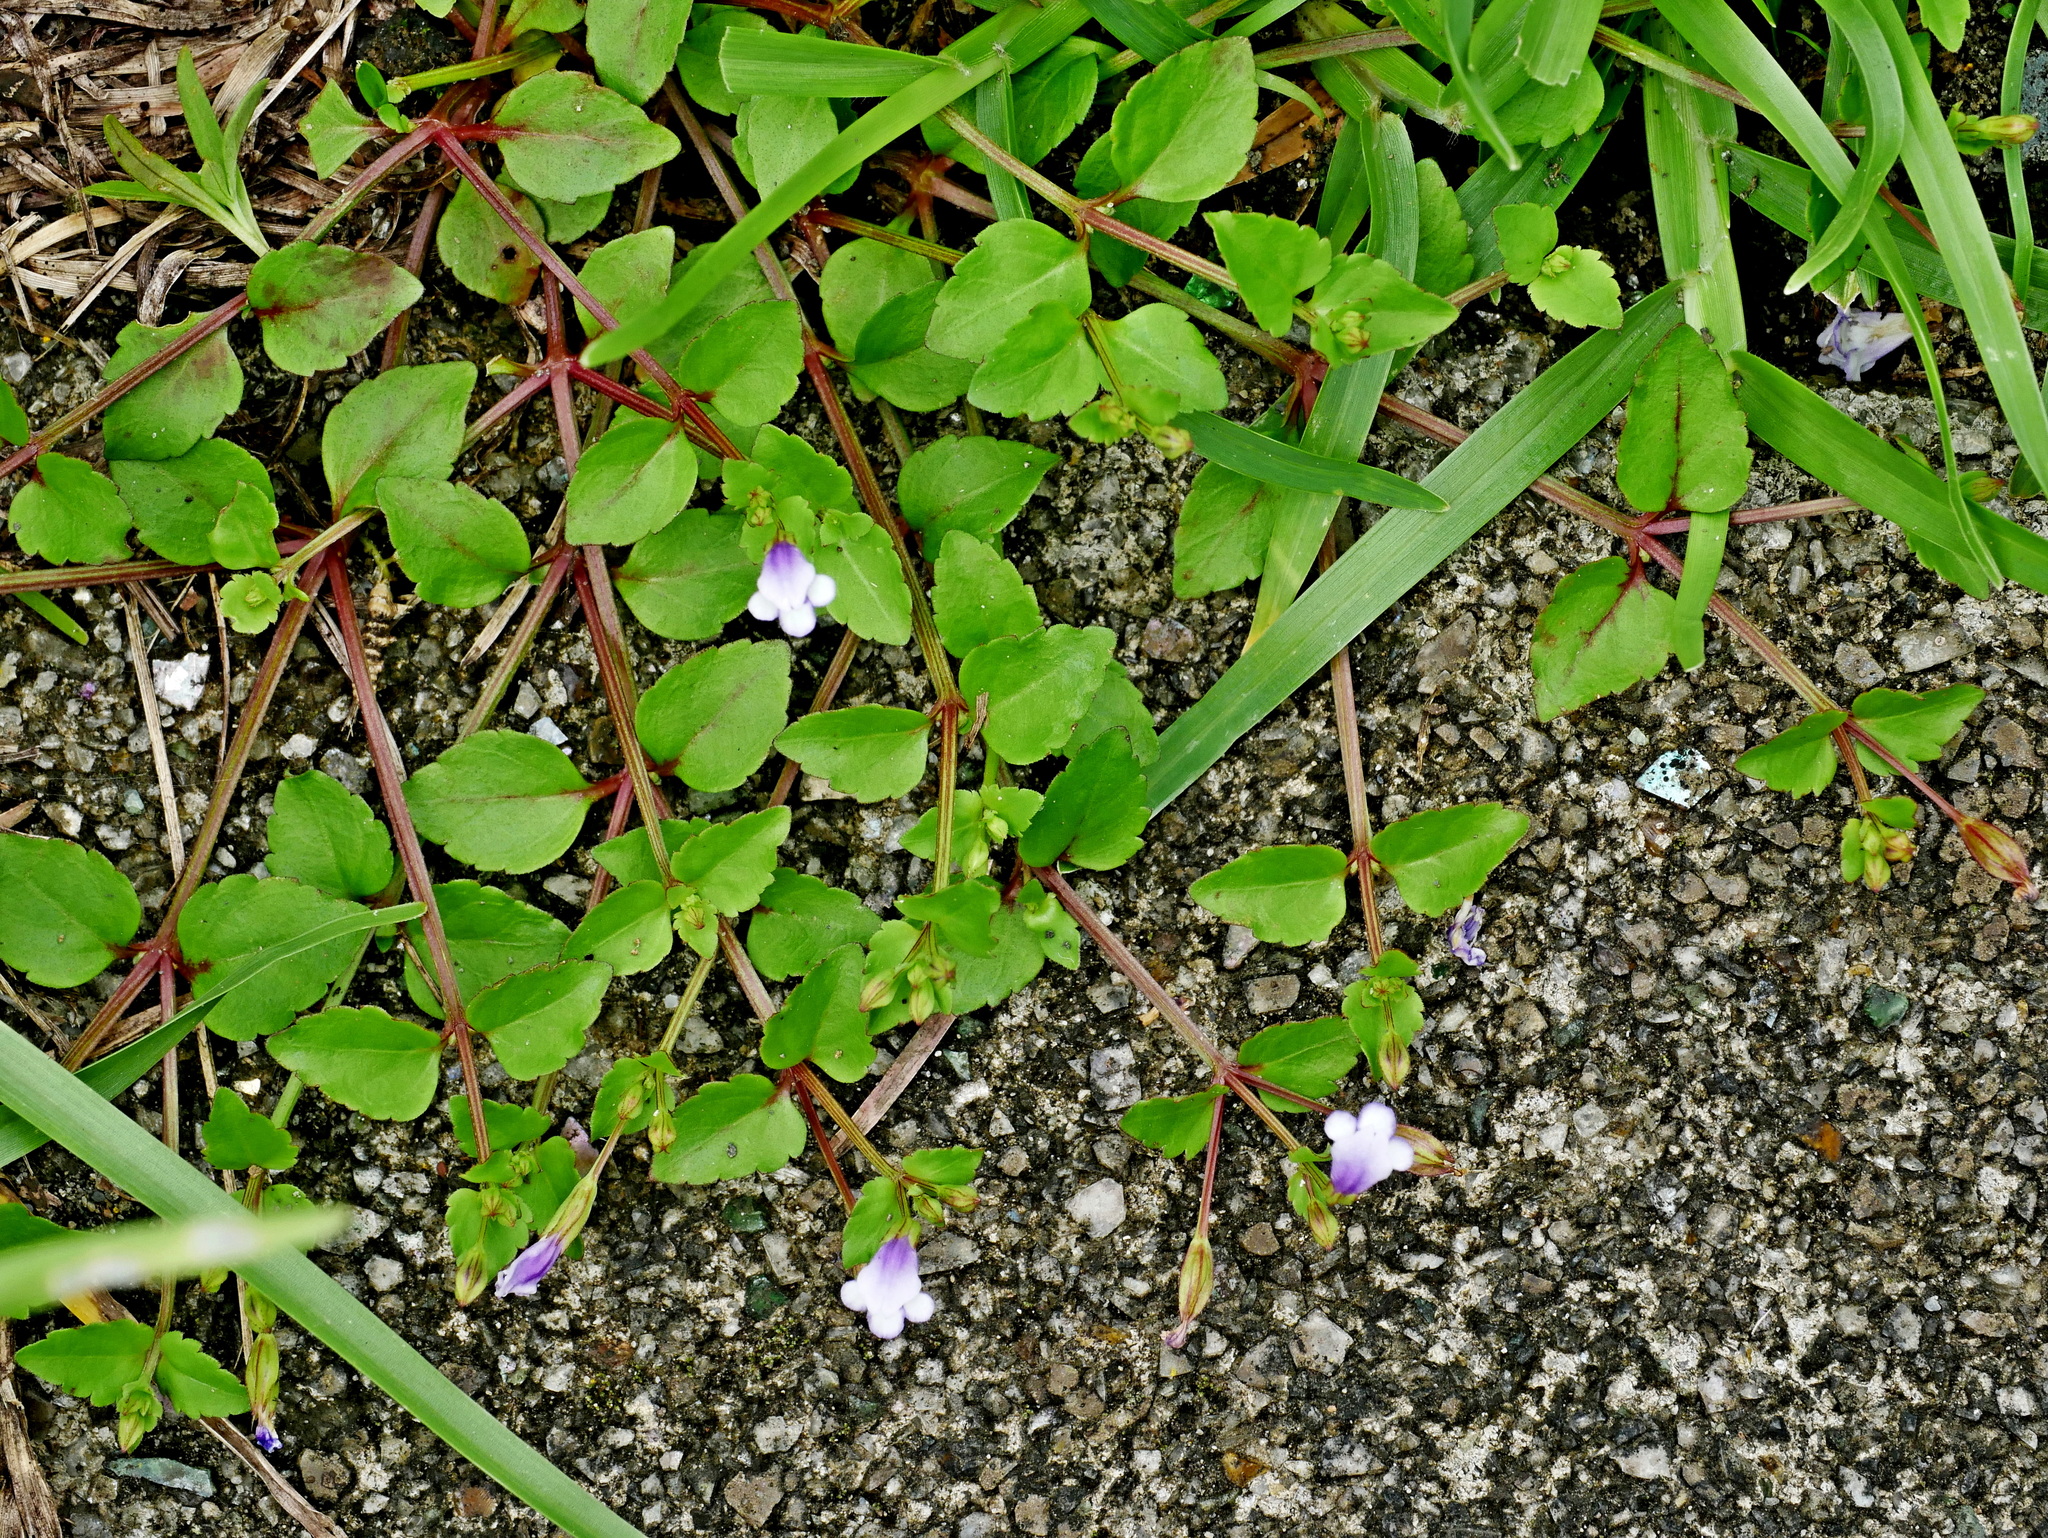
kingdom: Plantae
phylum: Tracheophyta
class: Magnoliopsida
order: Lamiales
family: Linderniaceae
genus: Torenia
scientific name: Torenia crustacea
